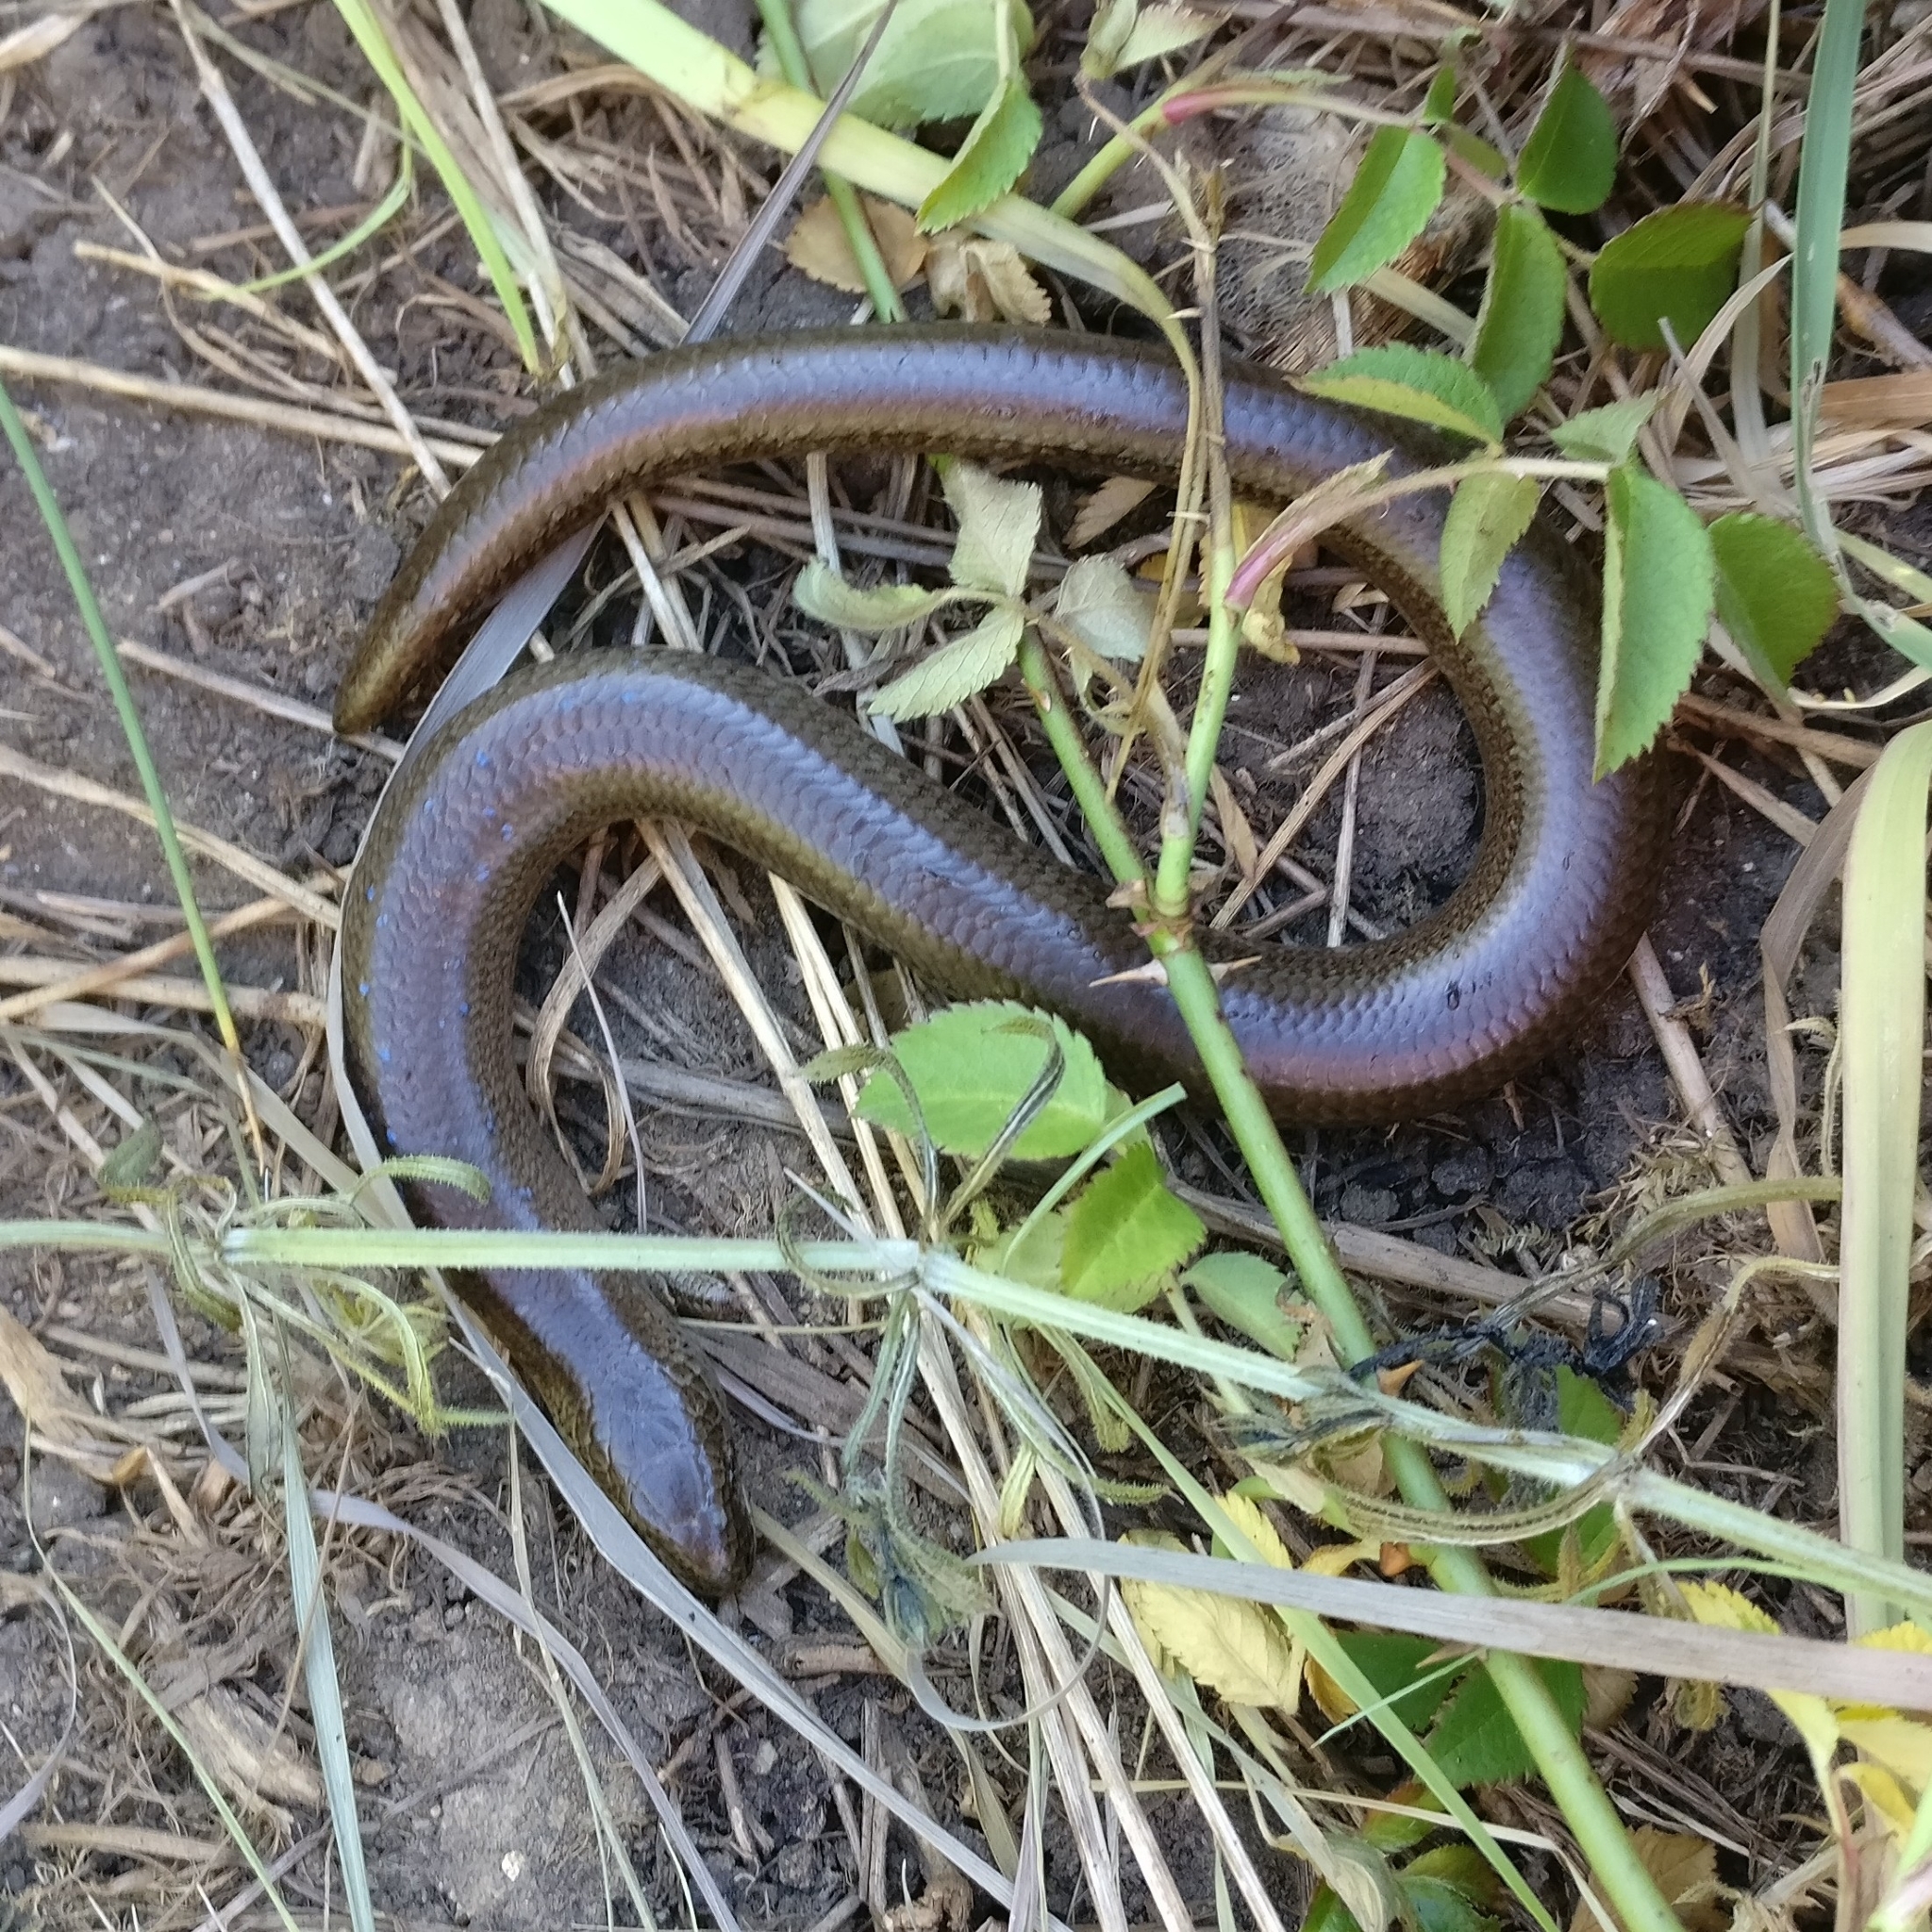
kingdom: Animalia
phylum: Chordata
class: Squamata
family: Anguidae
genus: Anguis
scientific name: Anguis fragilis
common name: Slow worm
